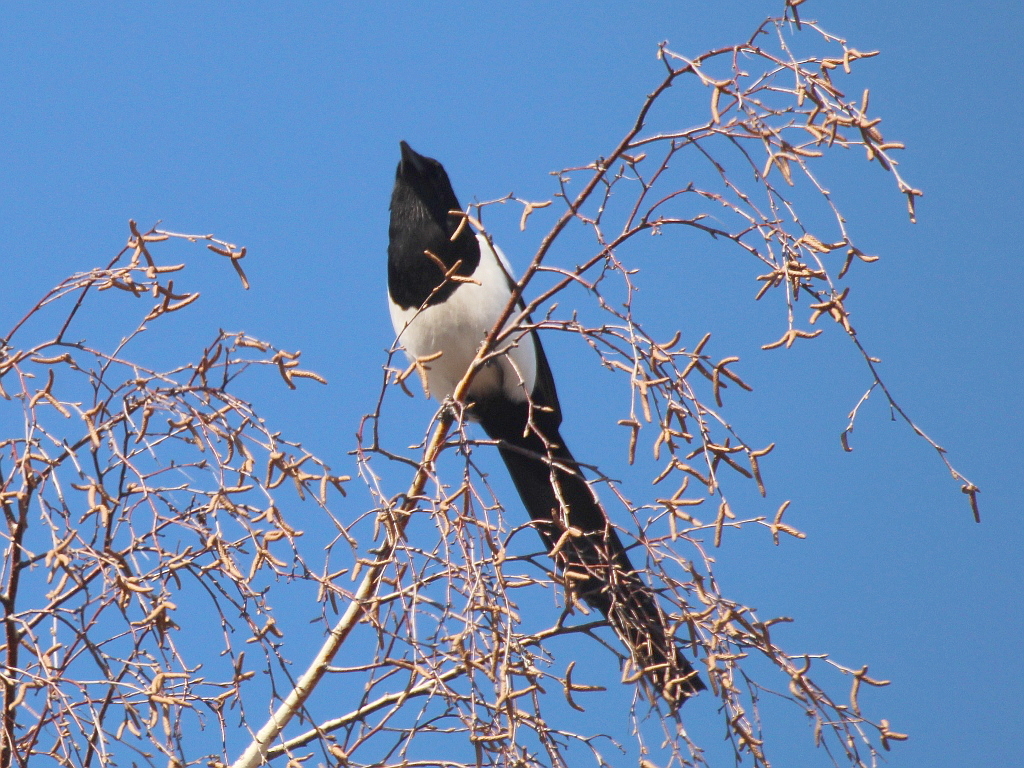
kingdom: Animalia
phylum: Chordata
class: Aves
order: Passeriformes
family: Corvidae
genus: Pica
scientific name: Pica pica
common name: Eurasian magpie
